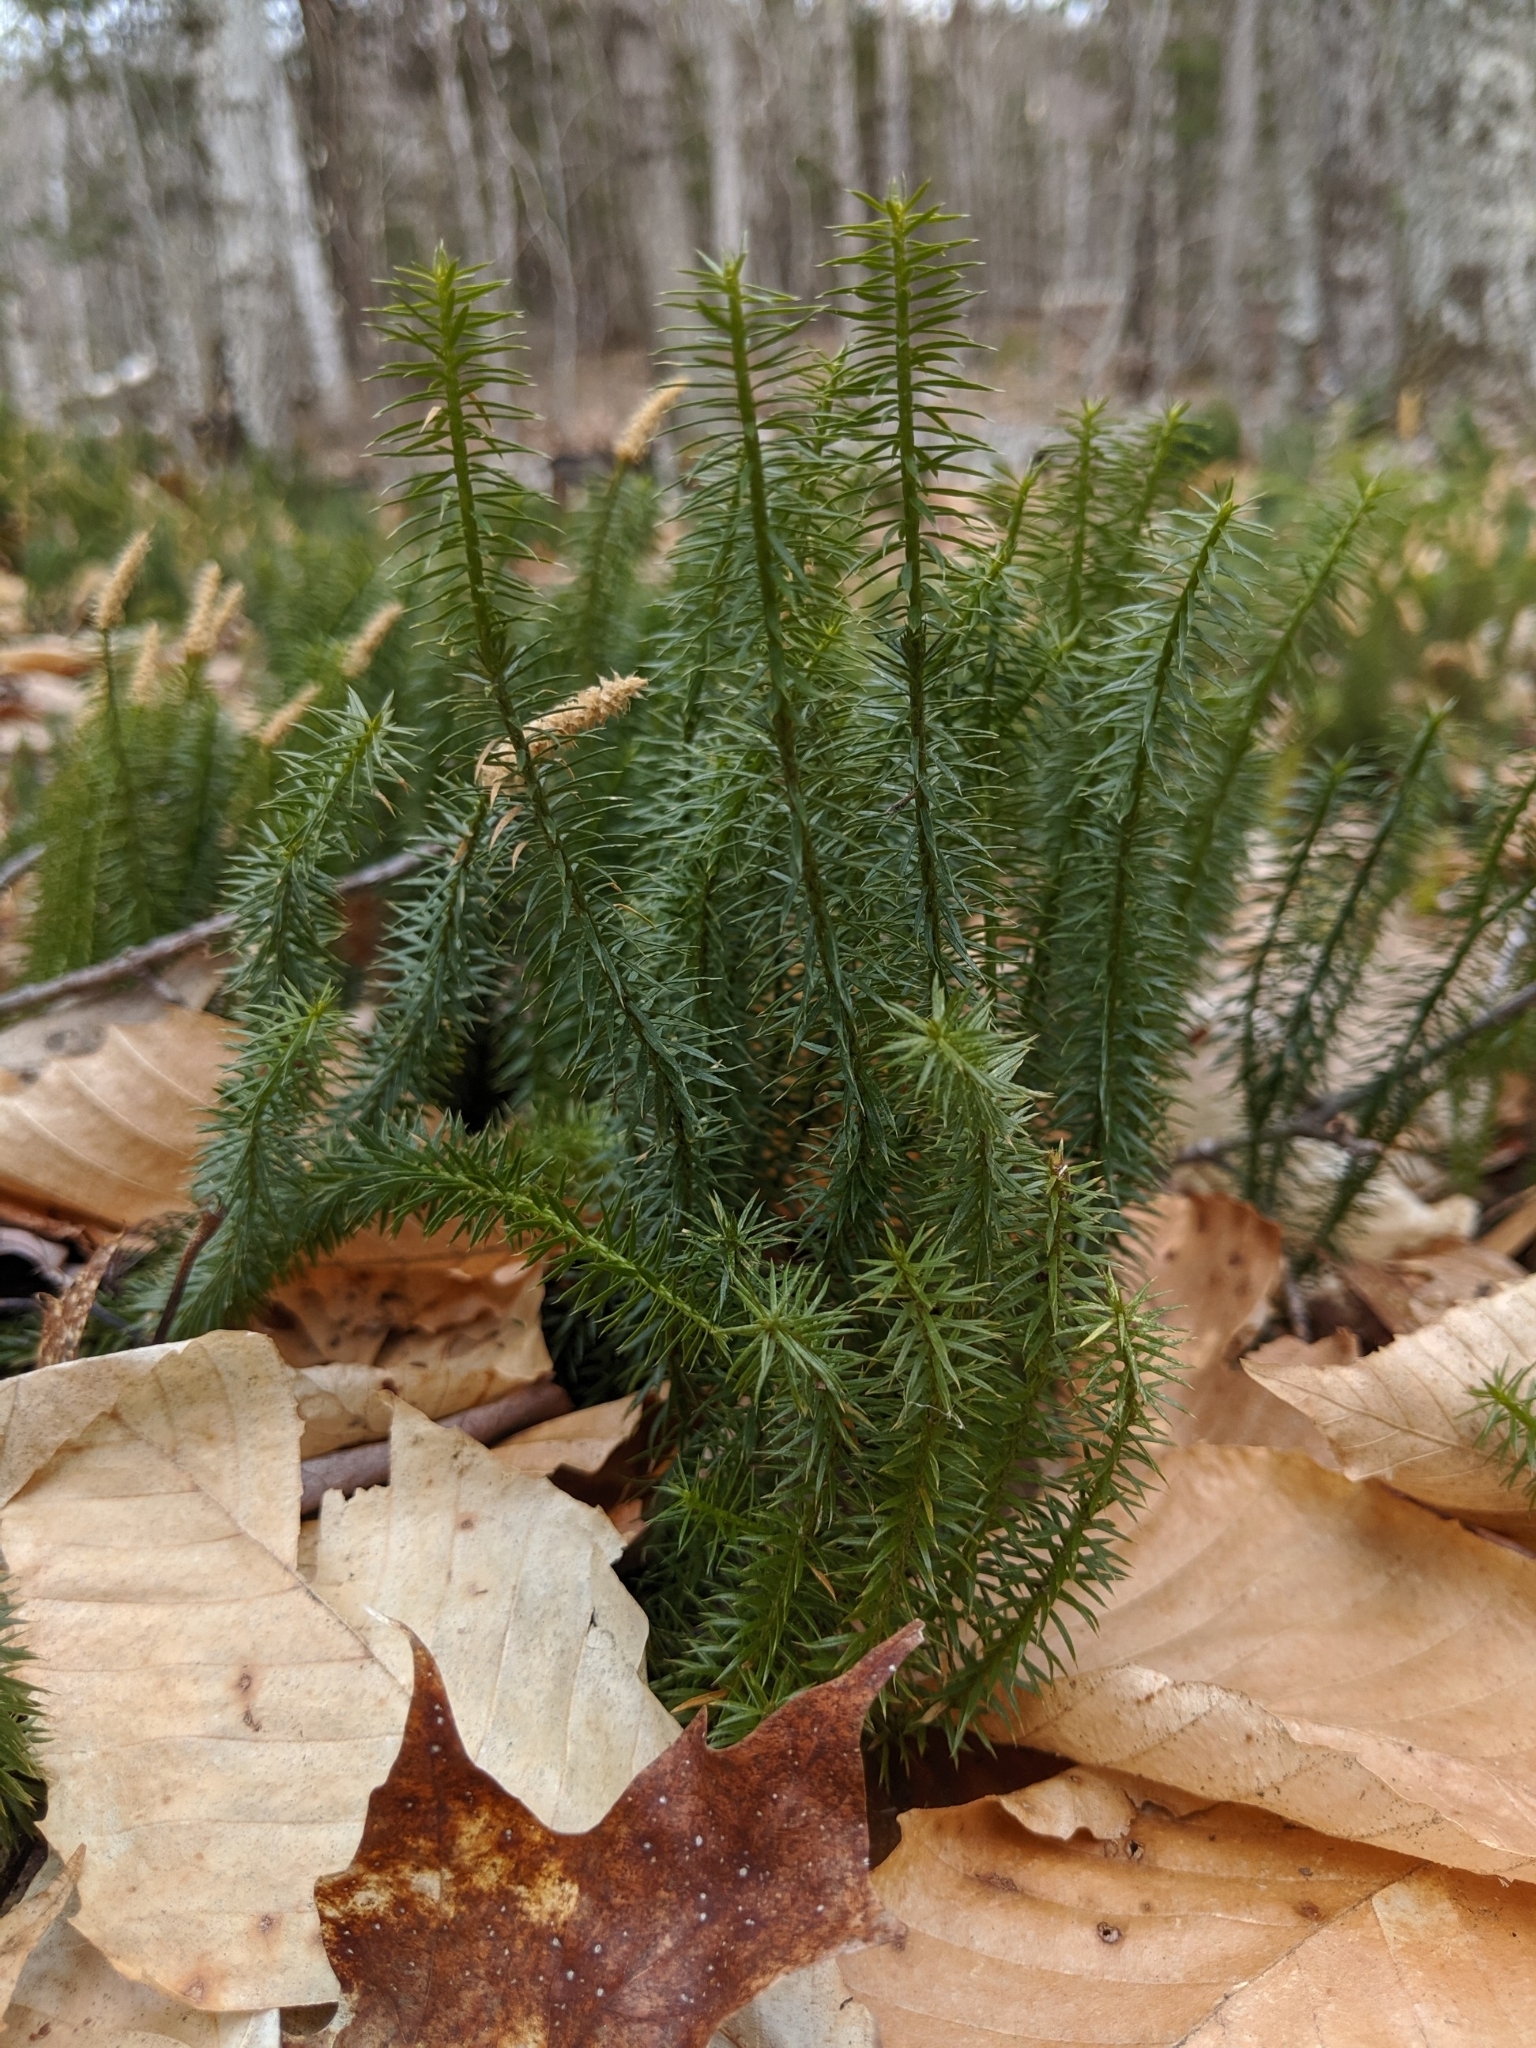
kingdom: Plantae
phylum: Tracheophyta
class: Lycopodiopsida
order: Lycopodiales
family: Lycopodiaceae
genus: Spinulum
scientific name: Spinulum annotinum
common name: Interrupted club-moss
